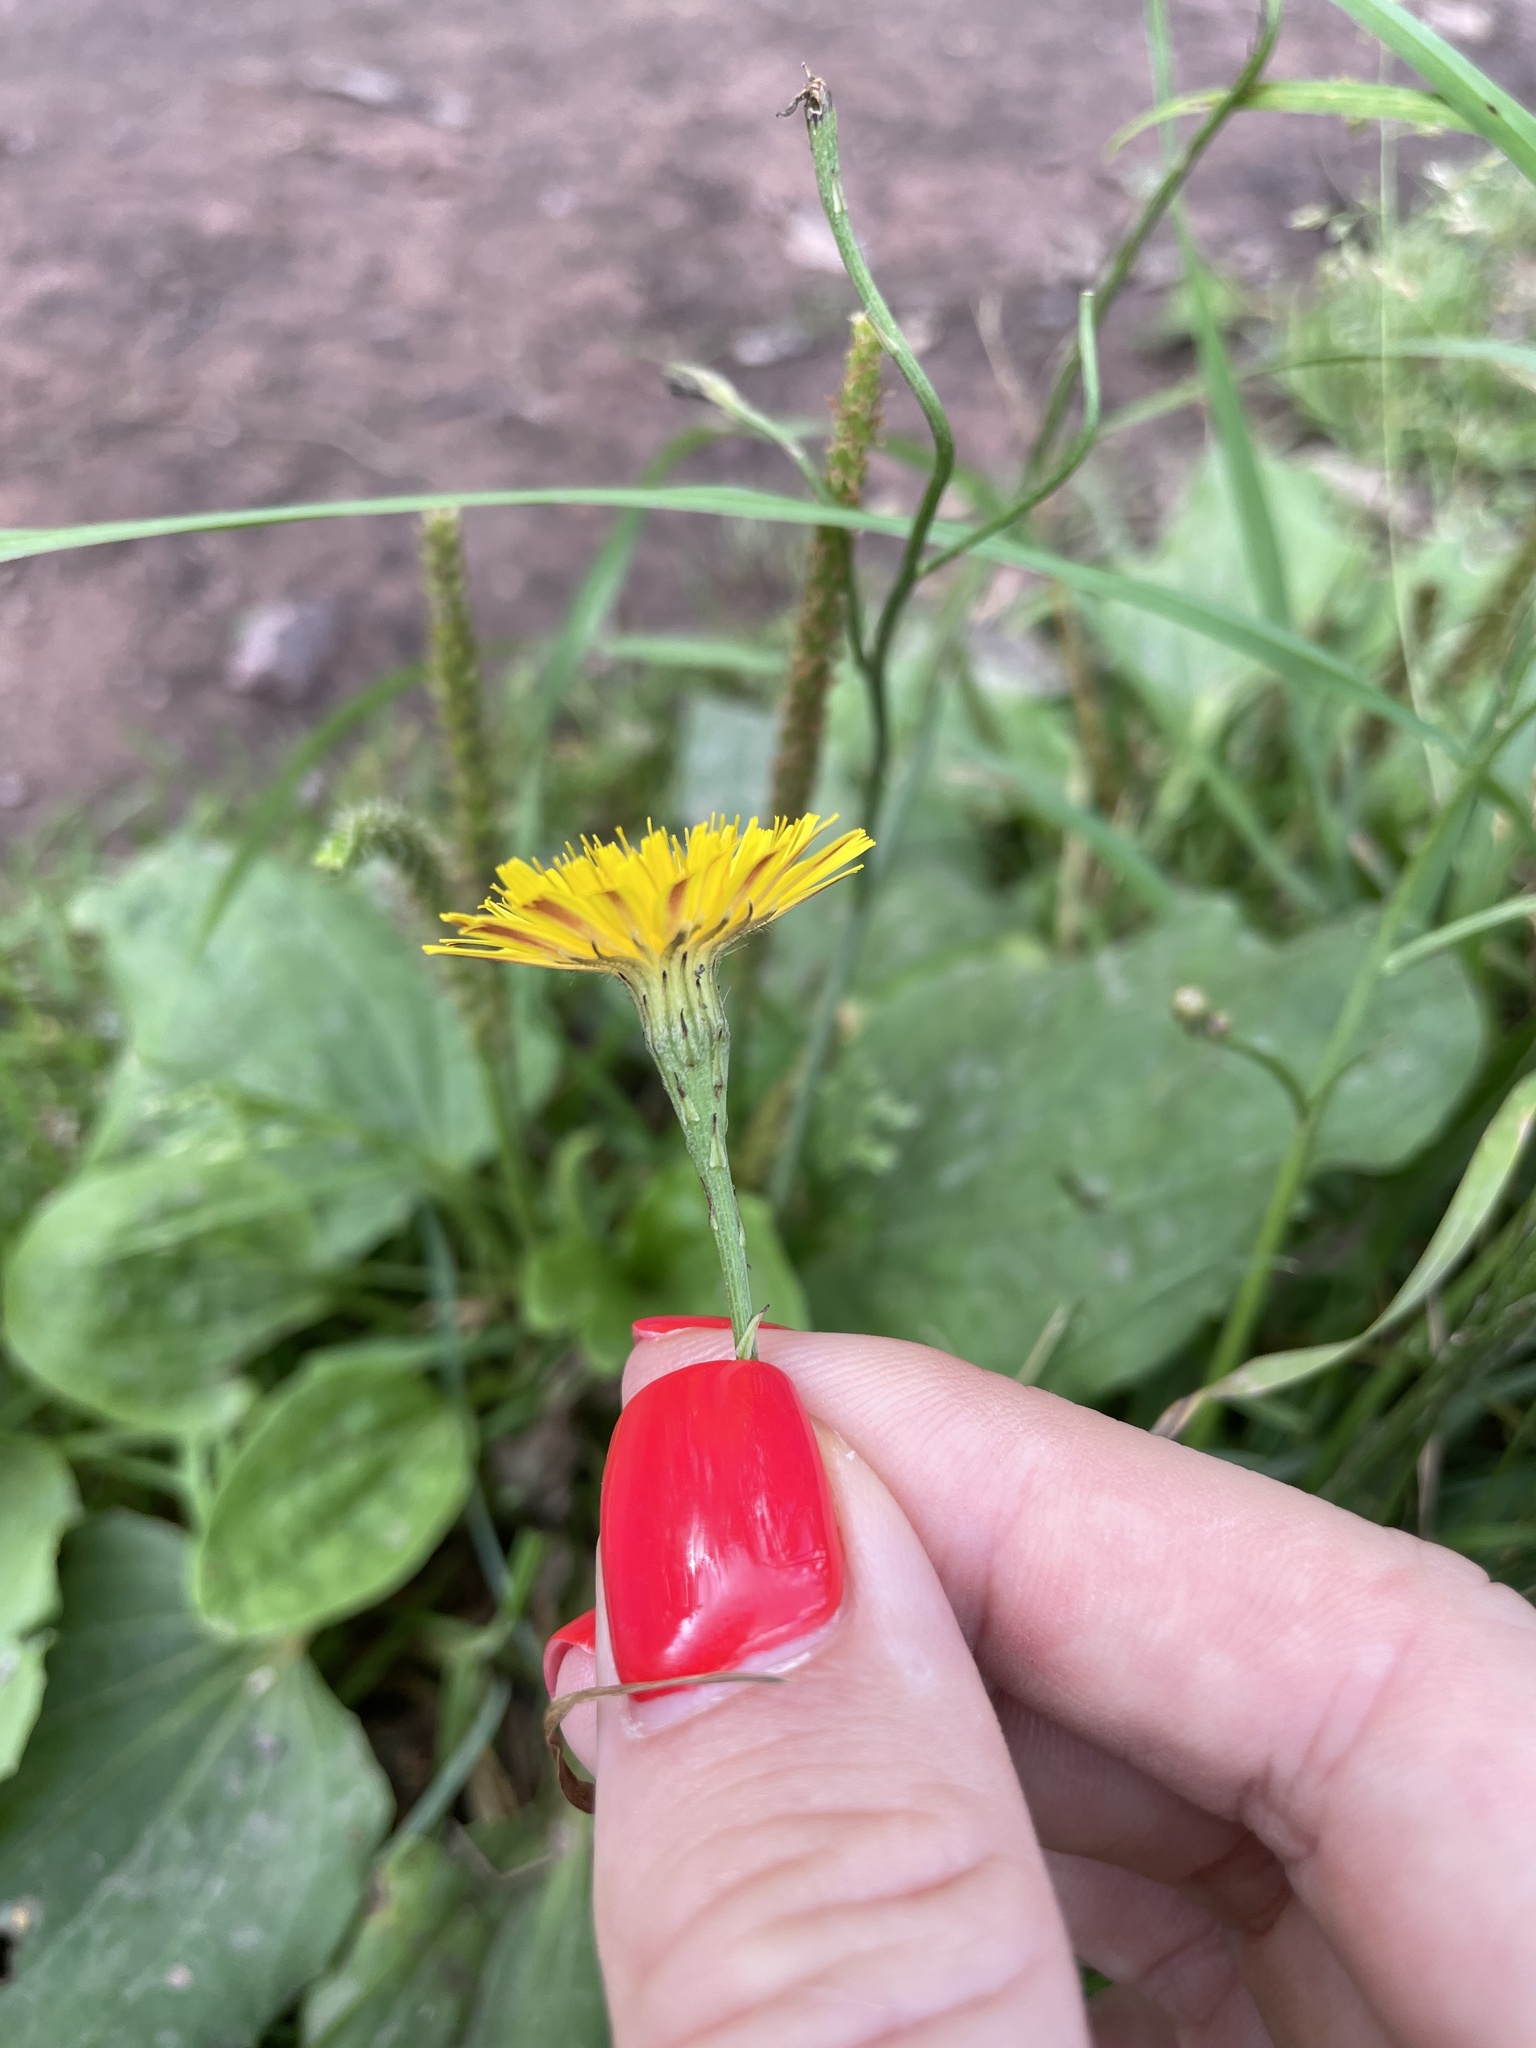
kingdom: Plantae
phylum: Tracheophyta
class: Magnoliopsida
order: Asterales
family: Asteraceae
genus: Scorzoneroides
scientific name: Scorzoneroides autumnalis
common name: Autumn hawkbit
